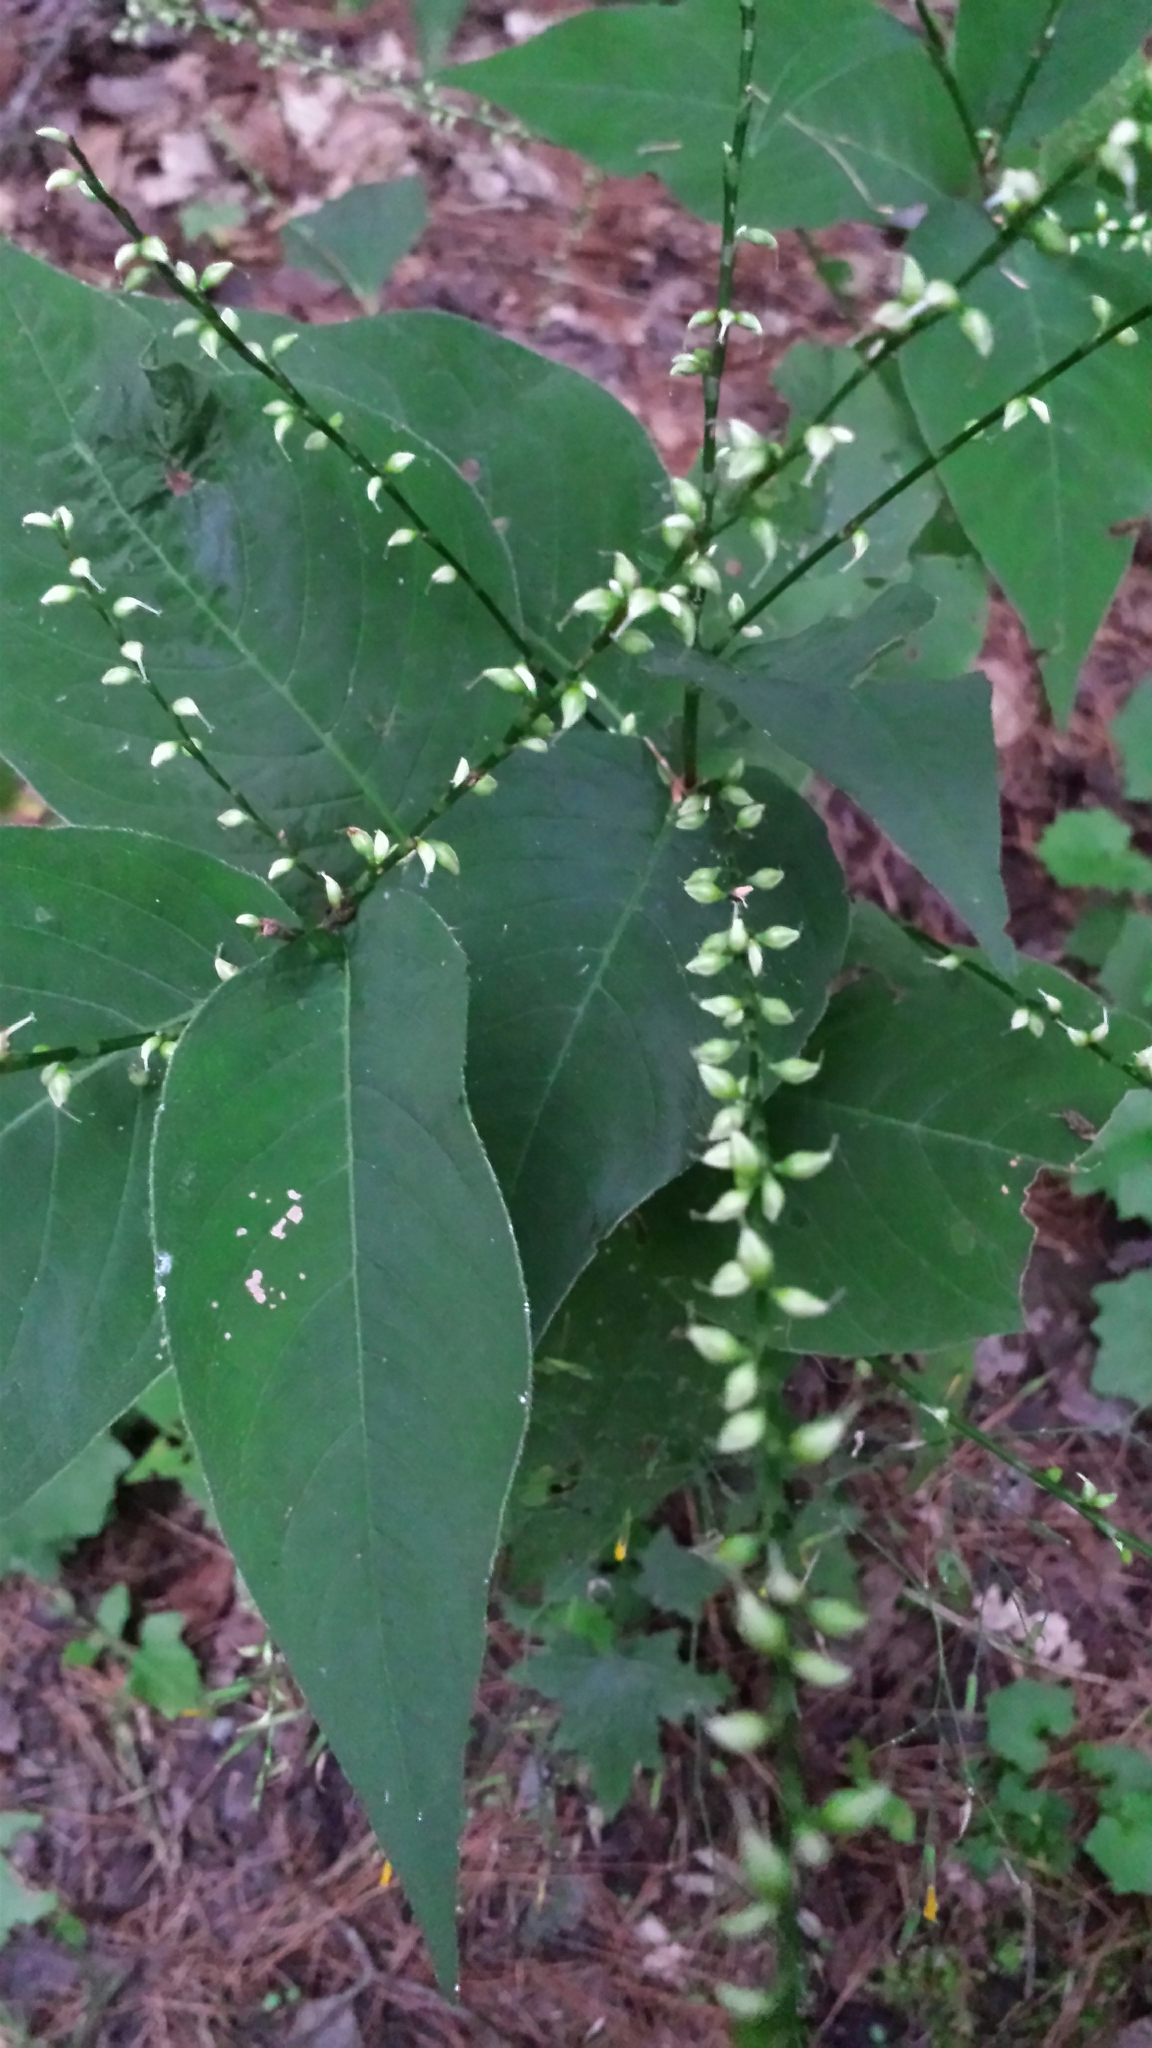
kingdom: Plantae
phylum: Tracheophyta
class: Magnoliopsida
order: Caryophyllales
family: Polygonaceae
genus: Persicaria
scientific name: Persicaria virginiana
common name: Jumpseed
